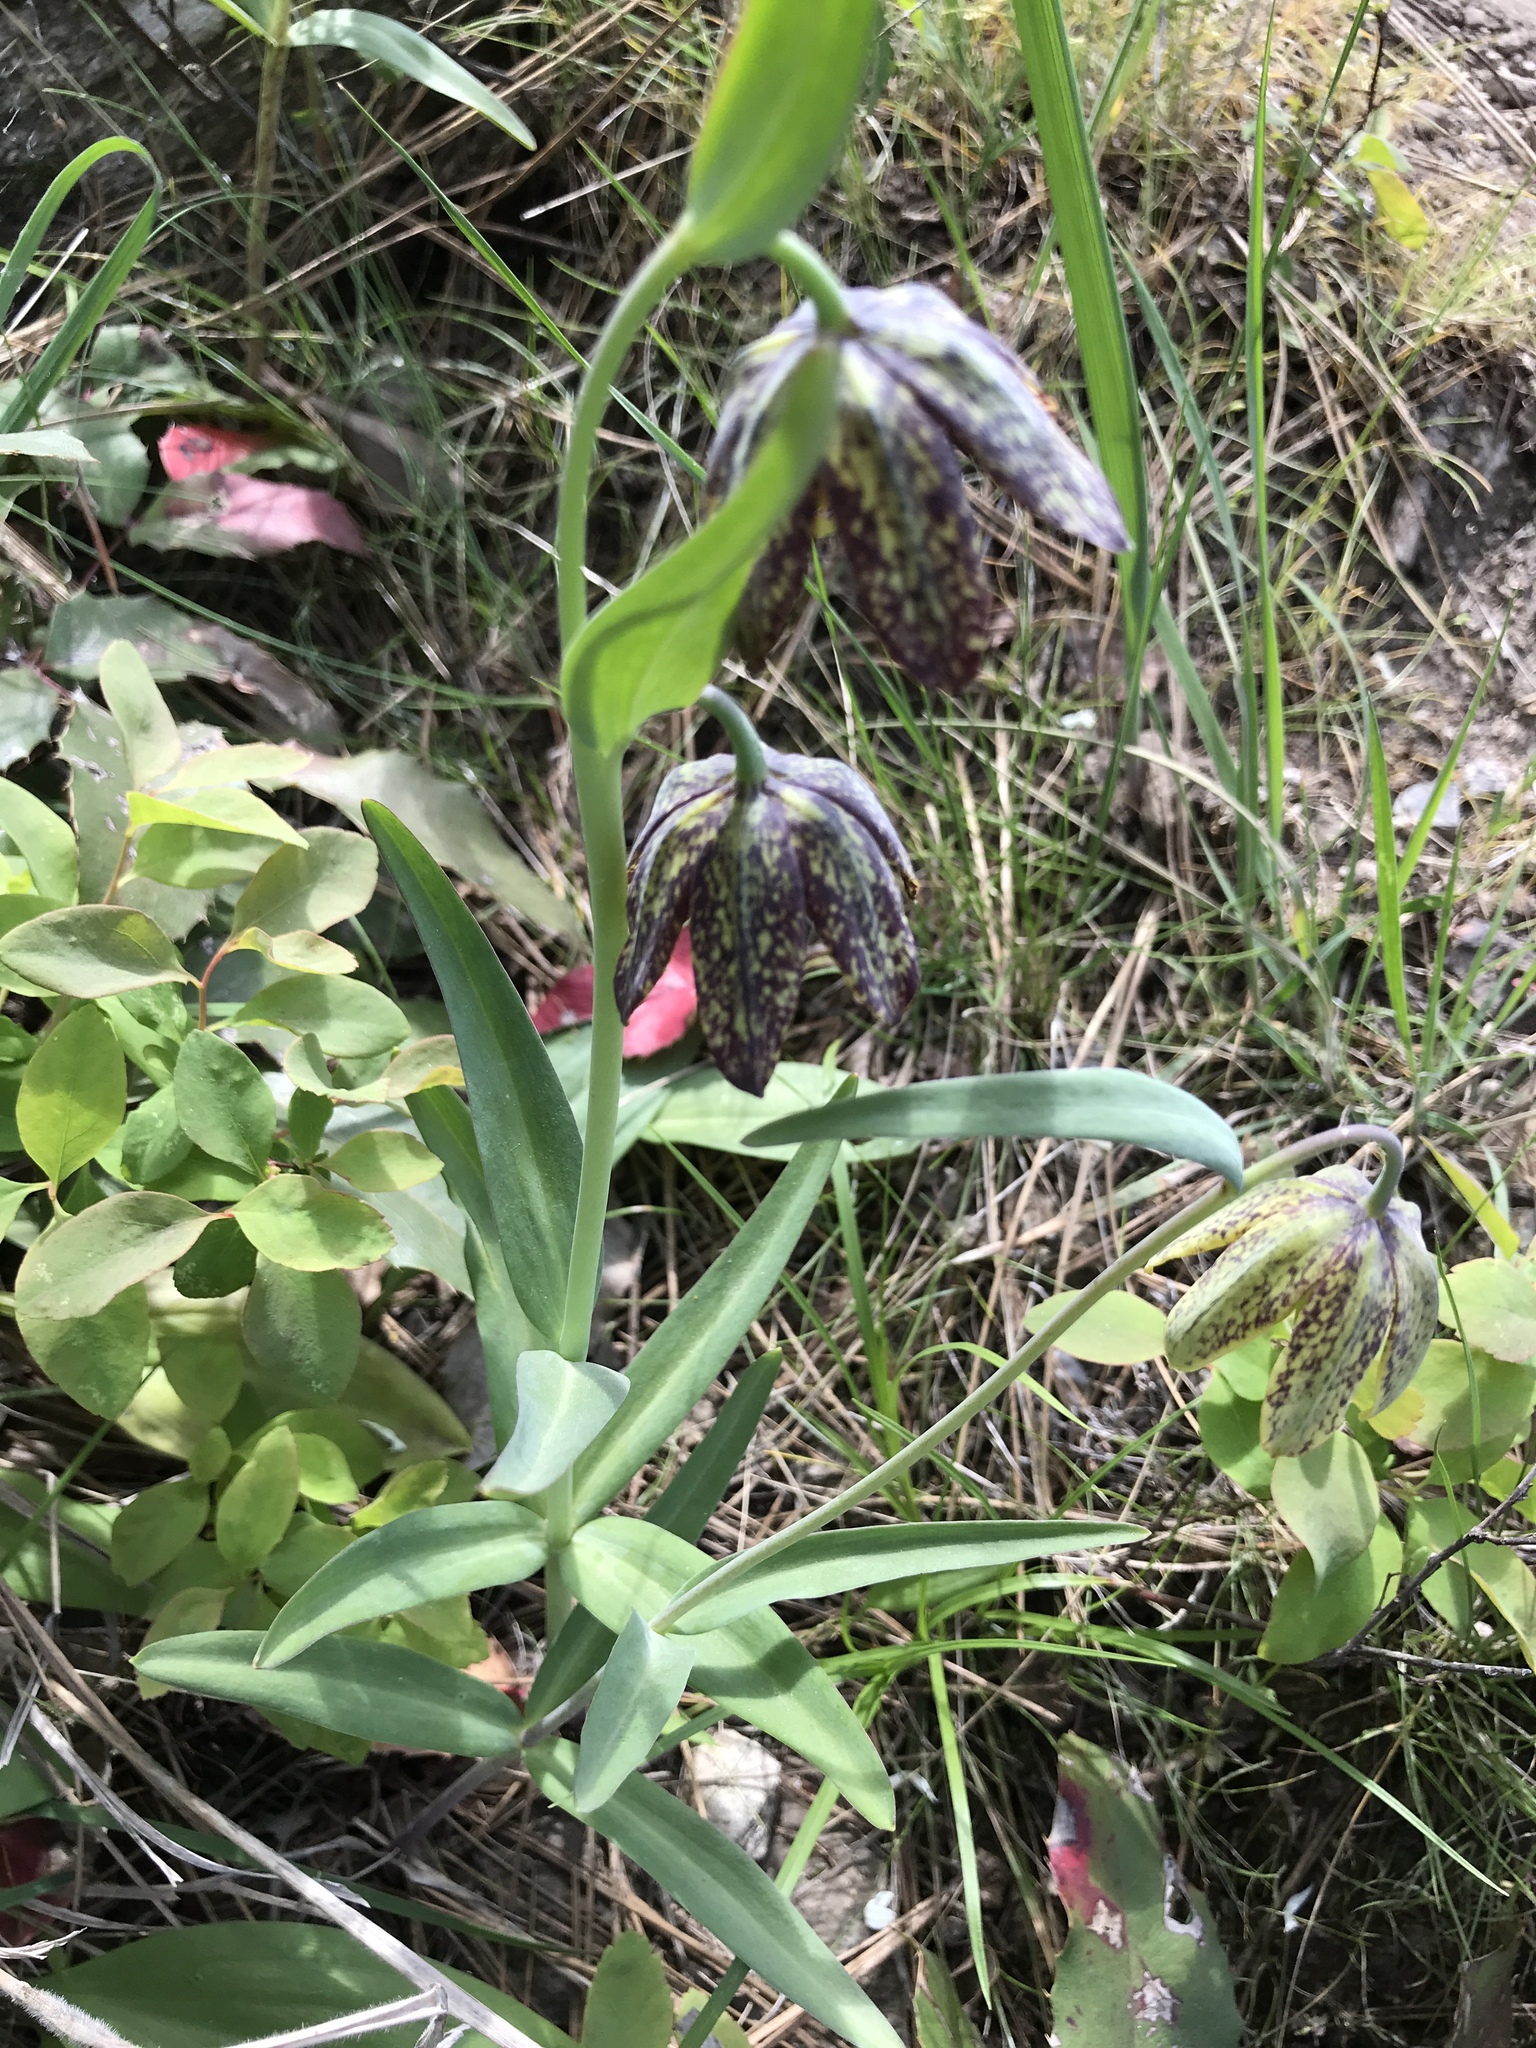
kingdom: Plantae
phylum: Tracheophyta
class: Liliopsida
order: Liliales
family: Liliaceae
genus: Fritillaria
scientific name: Fritillaria affinis
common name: Ojai fritillary
